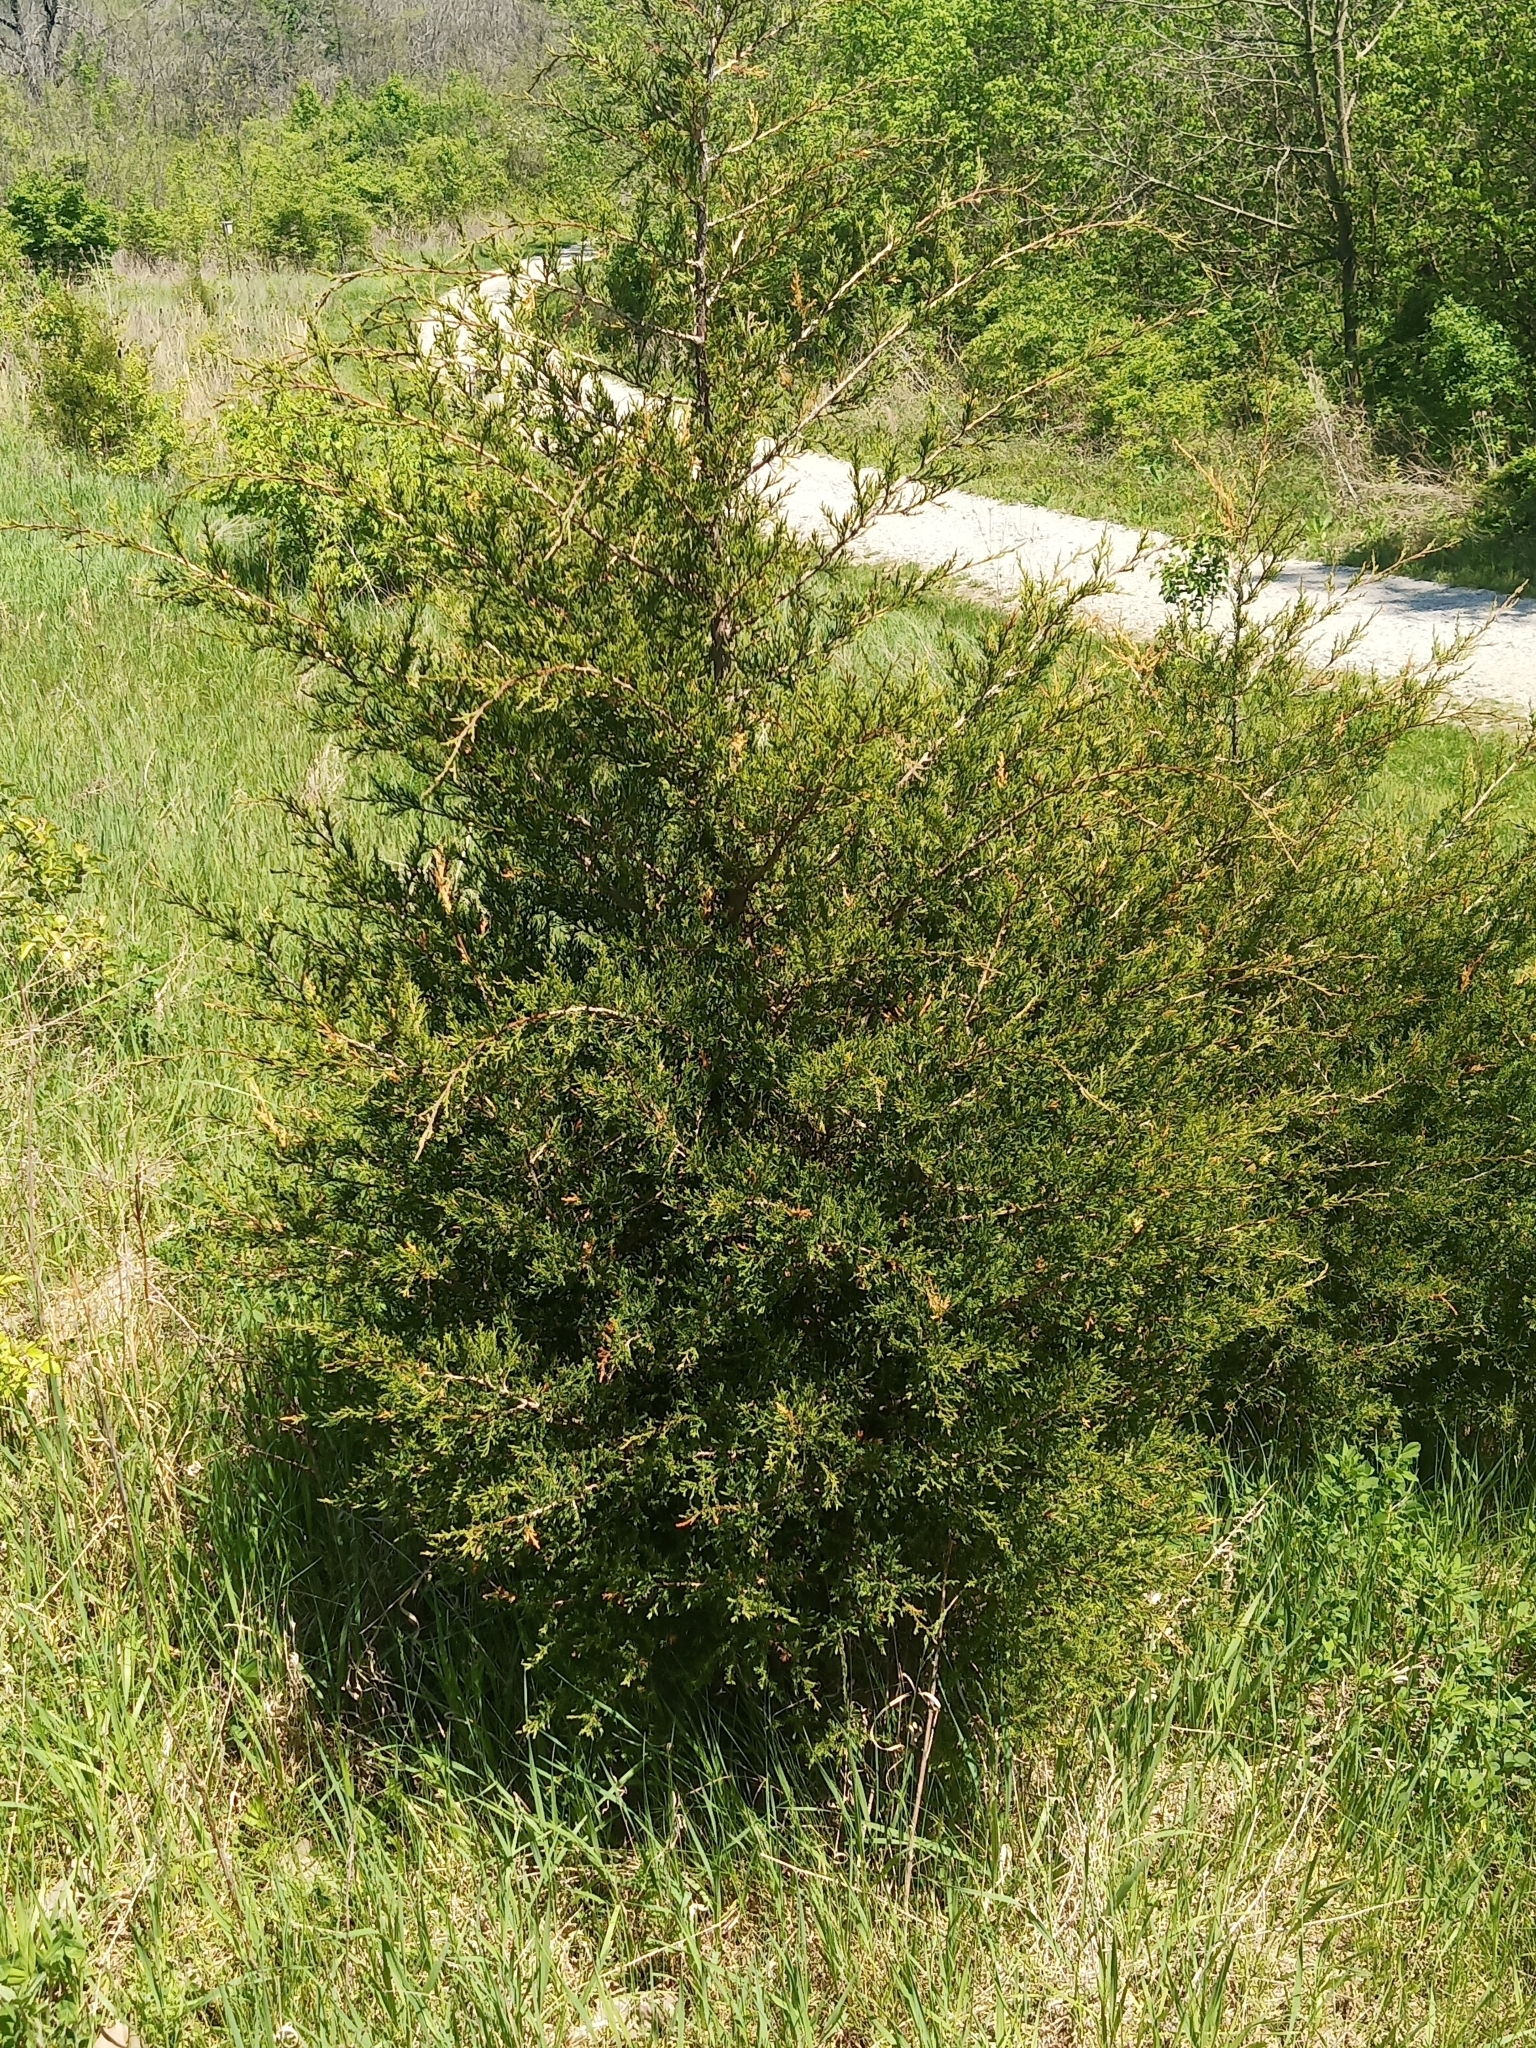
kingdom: Plantae
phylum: Tracheophyta
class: Pinopsida
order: Pinales
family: Cupressaceae
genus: Juniperus
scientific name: Juniperus virginiana
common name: Red juniper
